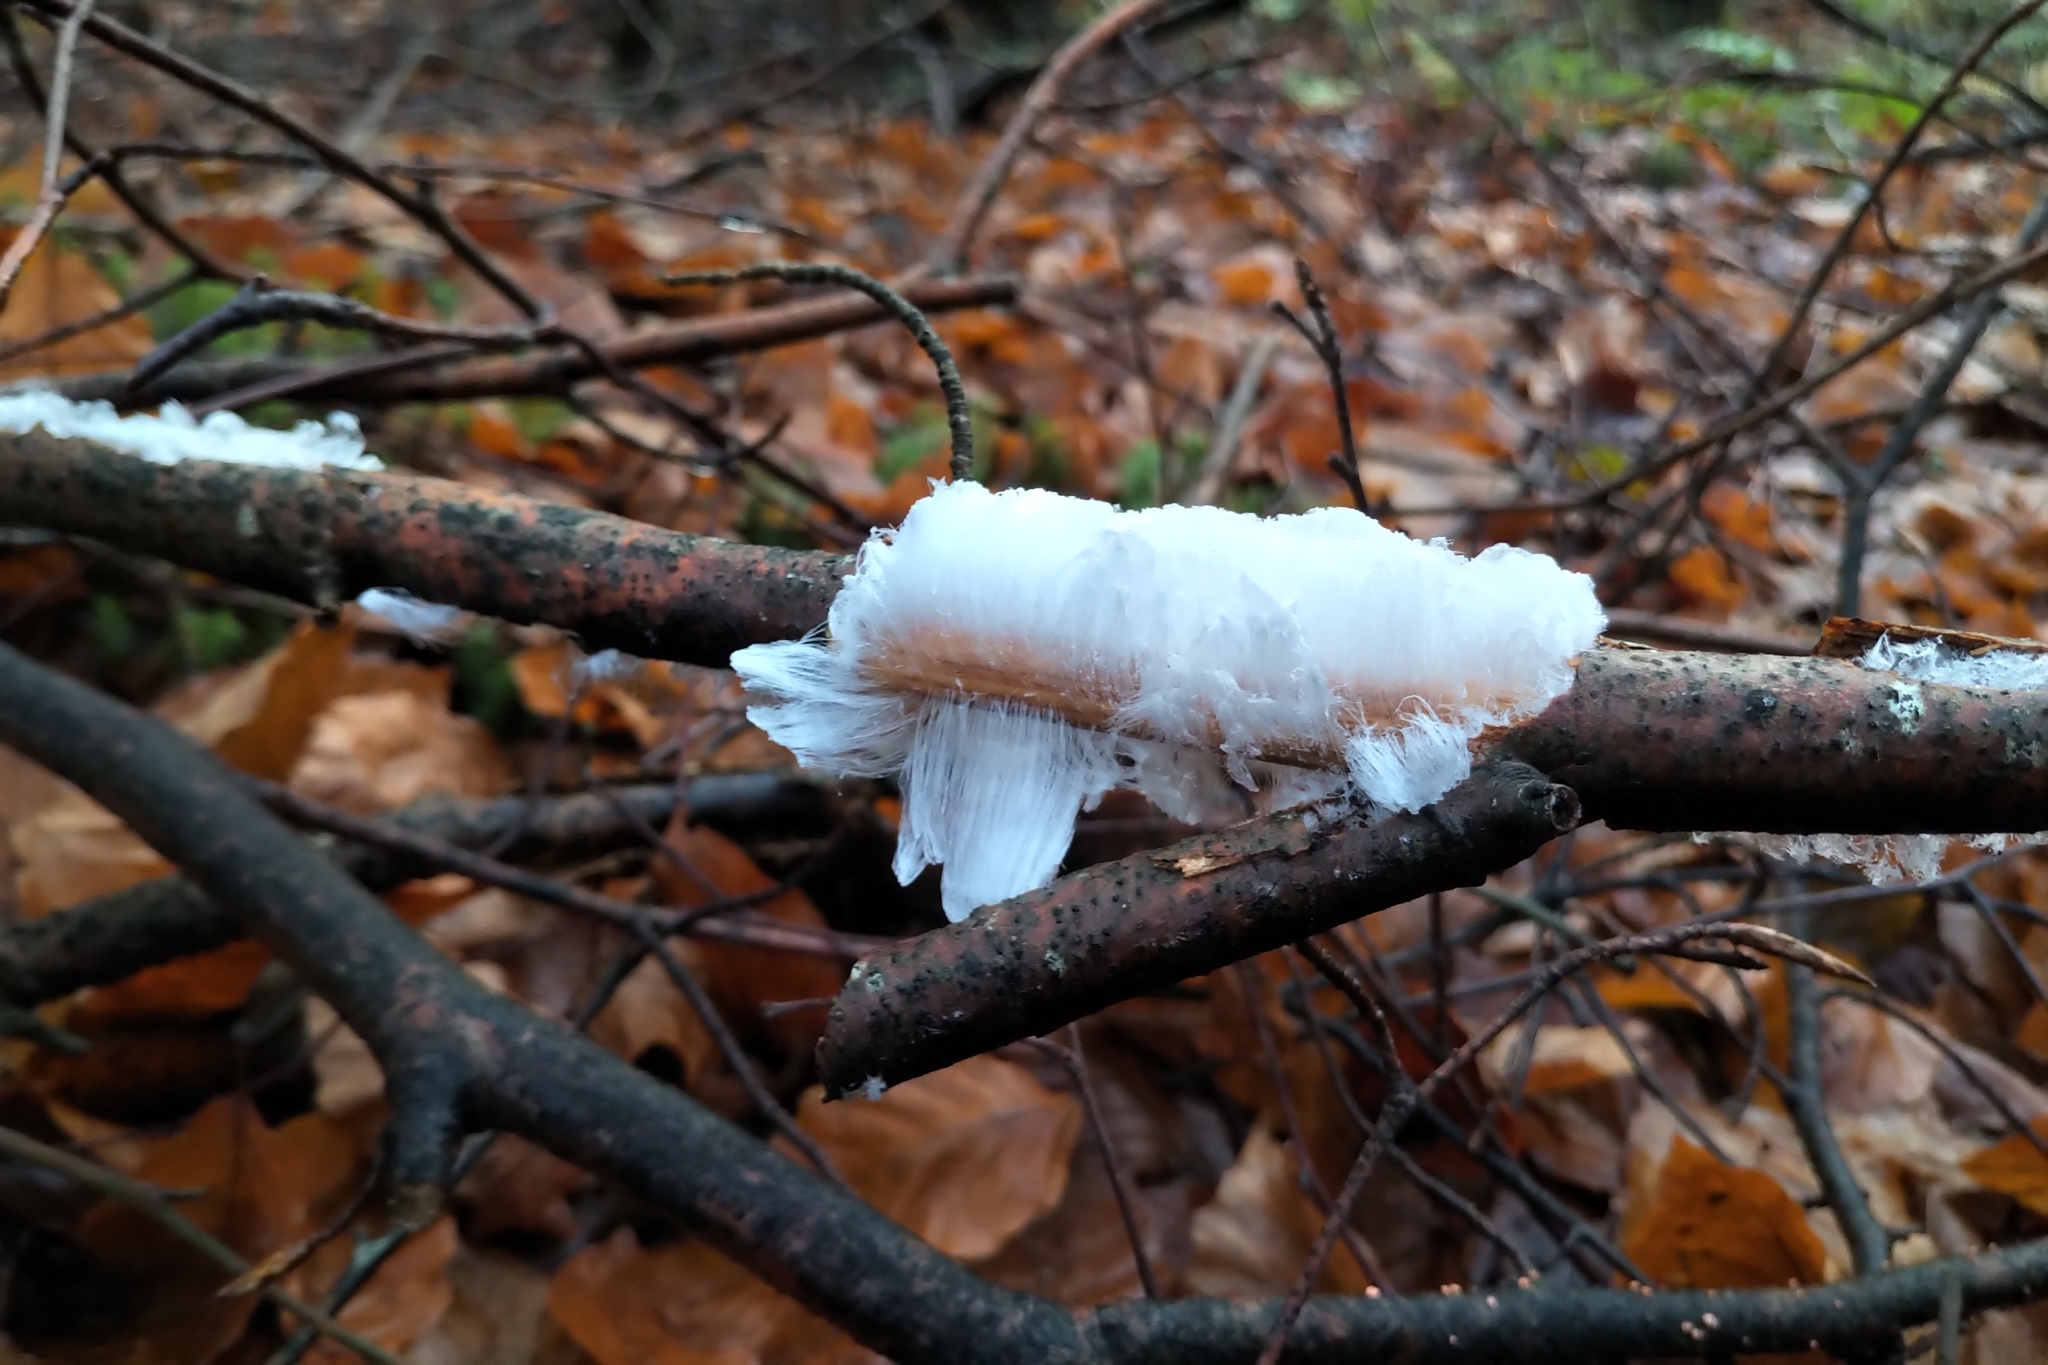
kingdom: Fungi
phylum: Basidiomycota
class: Agaricomycetes
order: Auriculariales
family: Auriculariaceae
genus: Exidiopsis
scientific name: Exidiopsis effusa
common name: Hair ice crust
